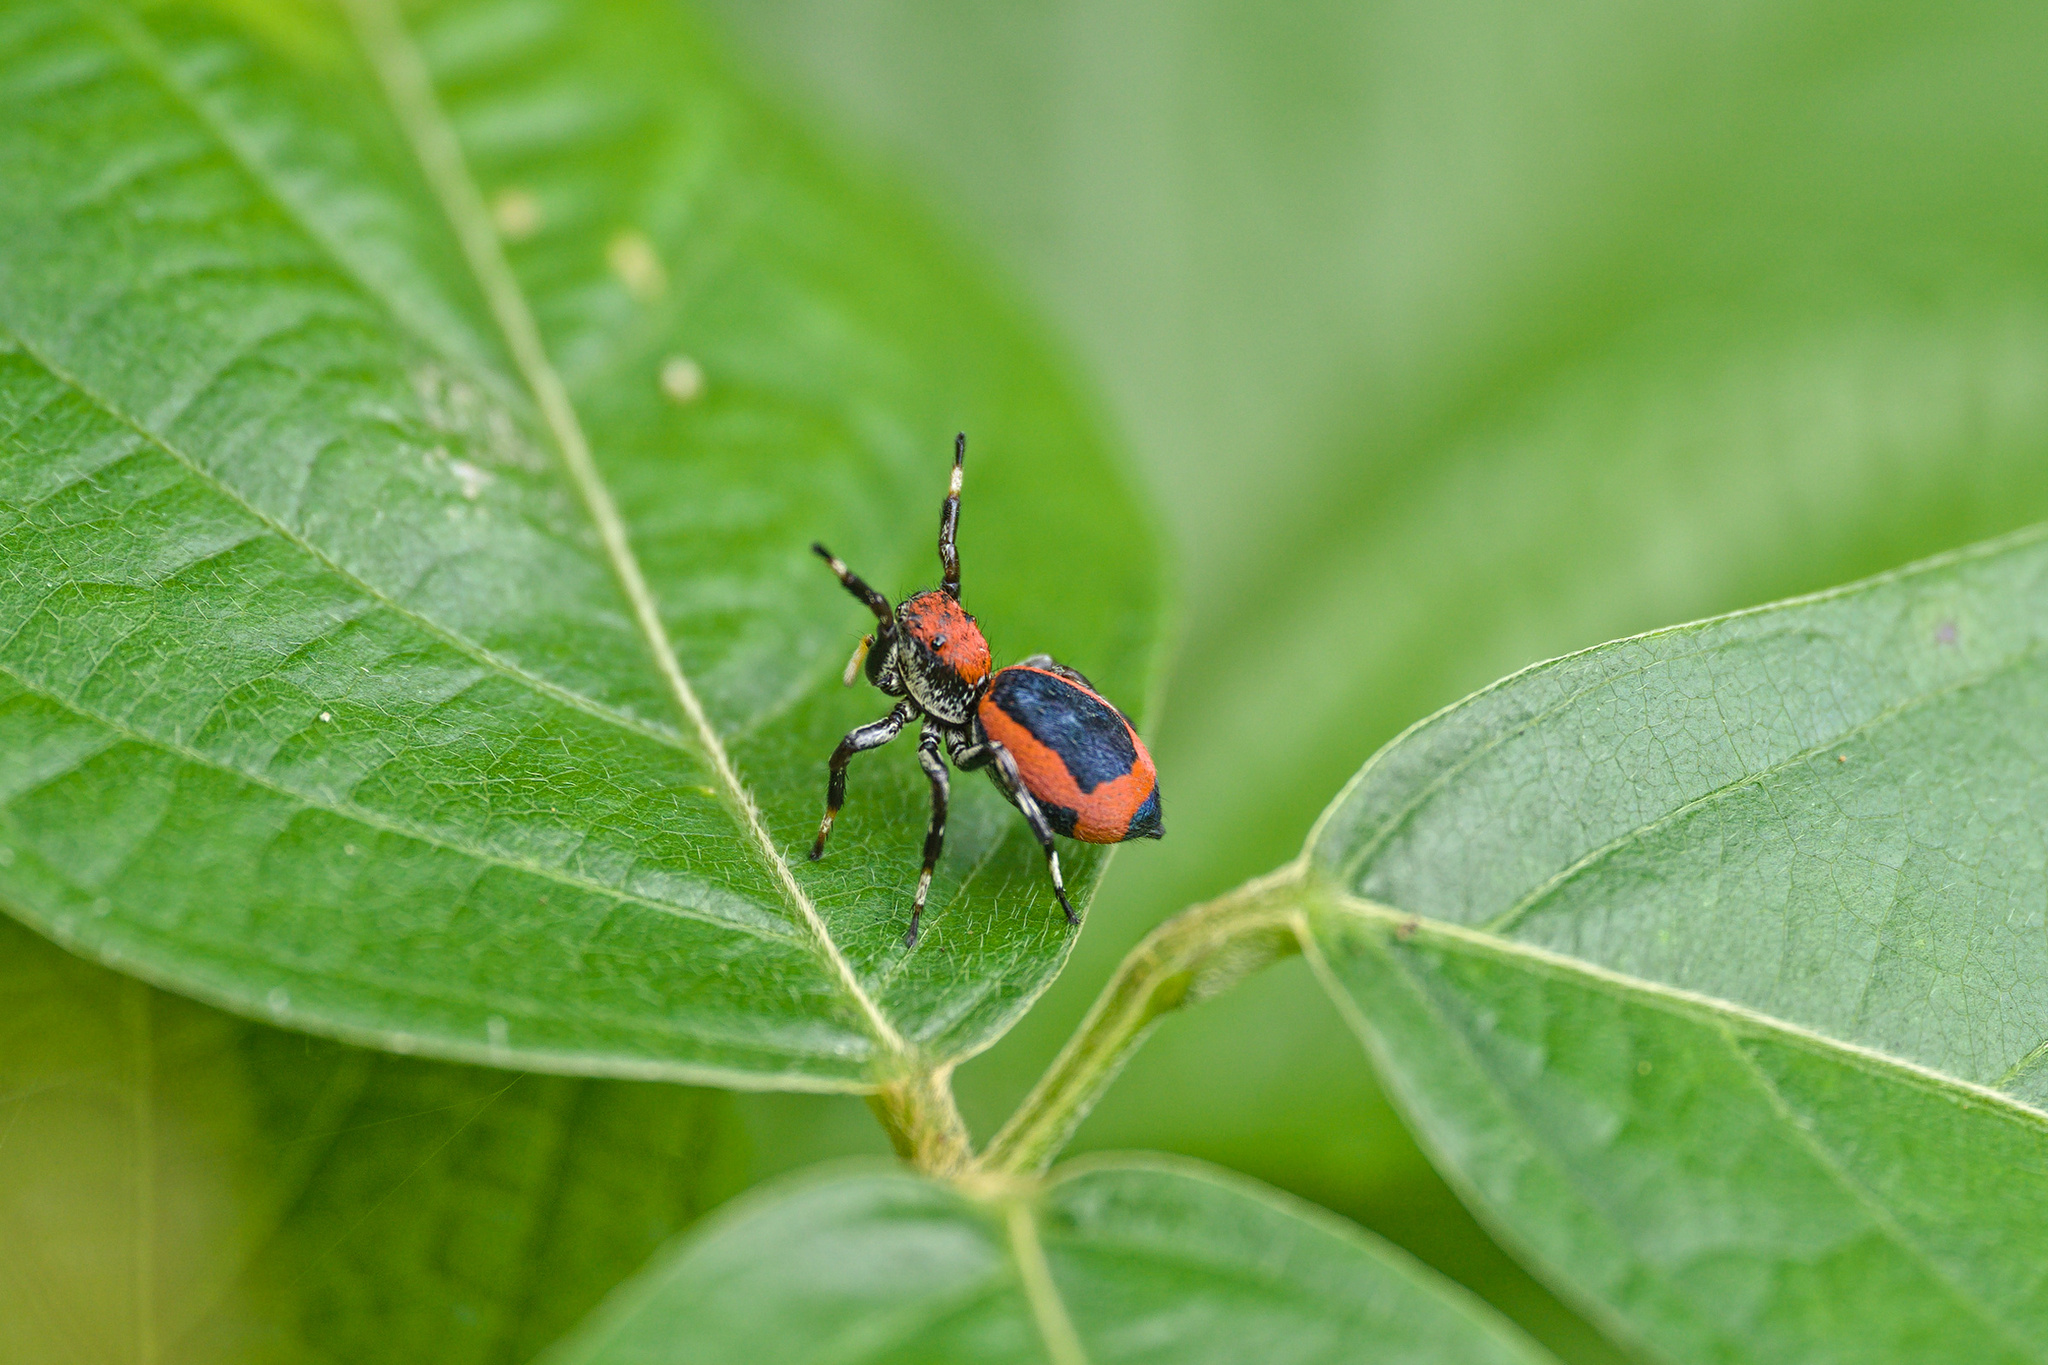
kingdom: Animalia
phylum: Arthropoda
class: Arachnida
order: Araneae
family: Salticidae
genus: Phiale
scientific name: Phiale mimica
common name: Jumping spiders
